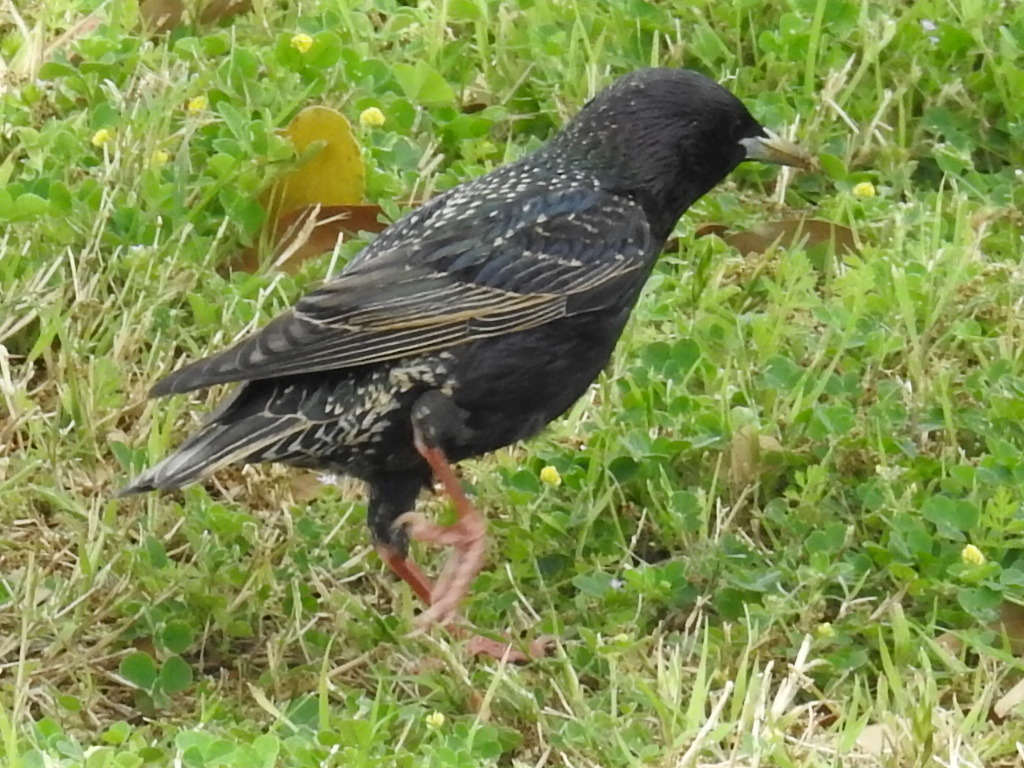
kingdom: Animalia
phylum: Chordata
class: Aves
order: Passeriformes
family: Sturnidae
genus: Sturnus
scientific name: Sturnus vulgaris
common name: Common starling
